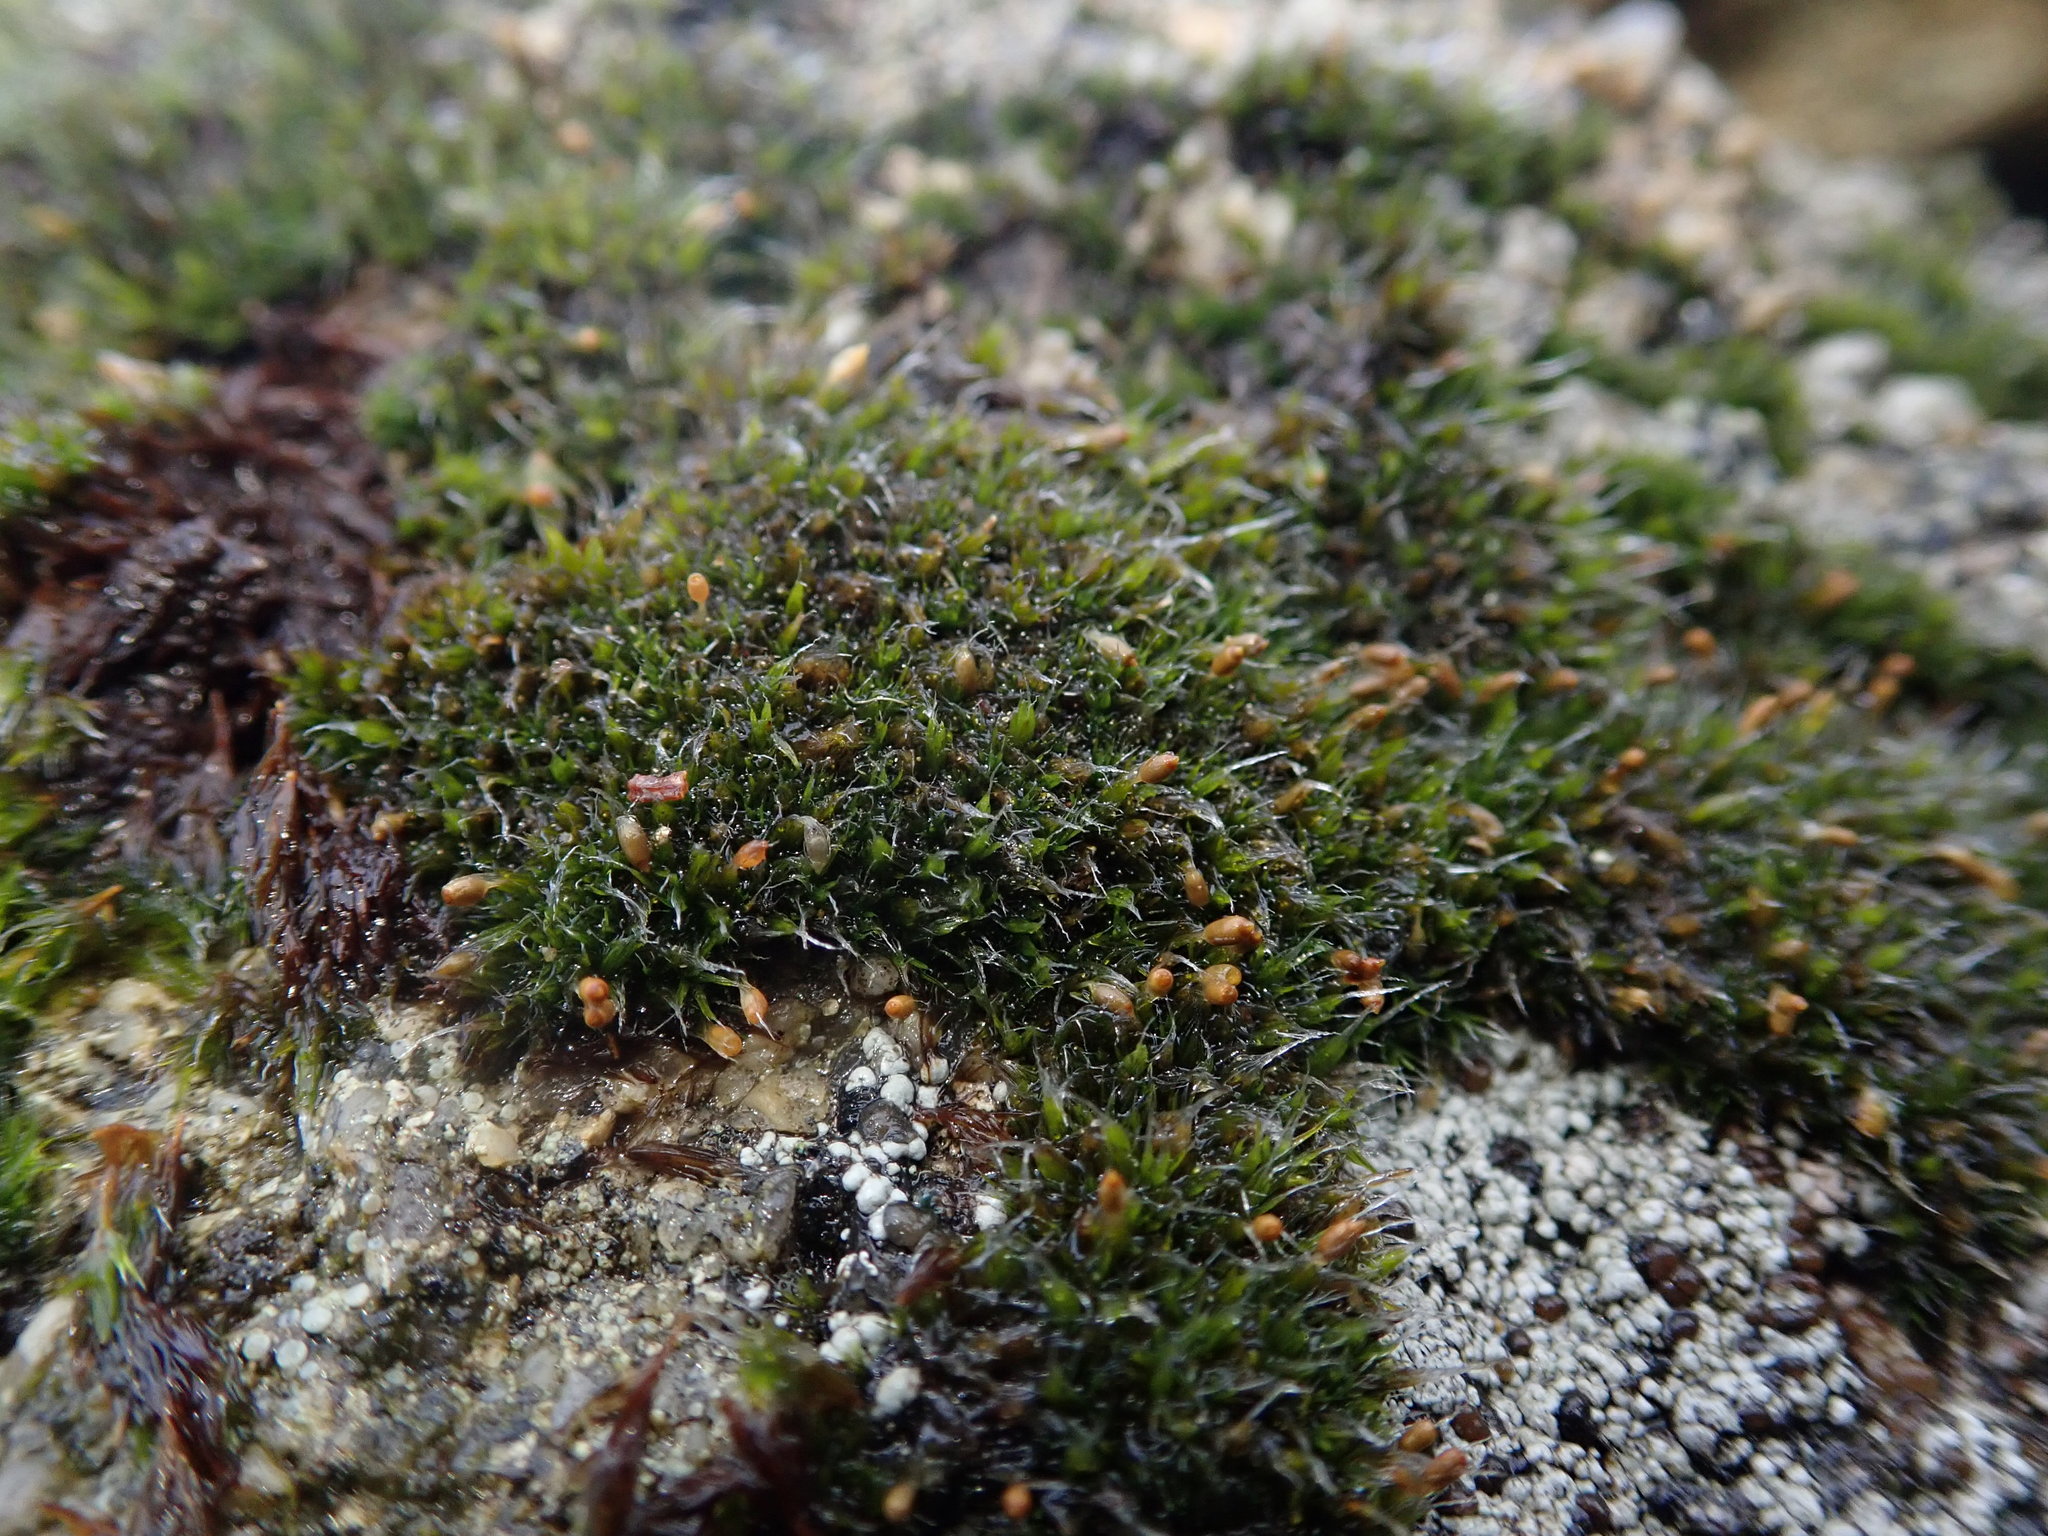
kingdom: Plantae
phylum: Bryophyta
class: Bryopsida
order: Grimmiales
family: Grimmiaceae
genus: Grimmia
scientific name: Grimmia pulvinata
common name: Grey-cushioned grimmia
